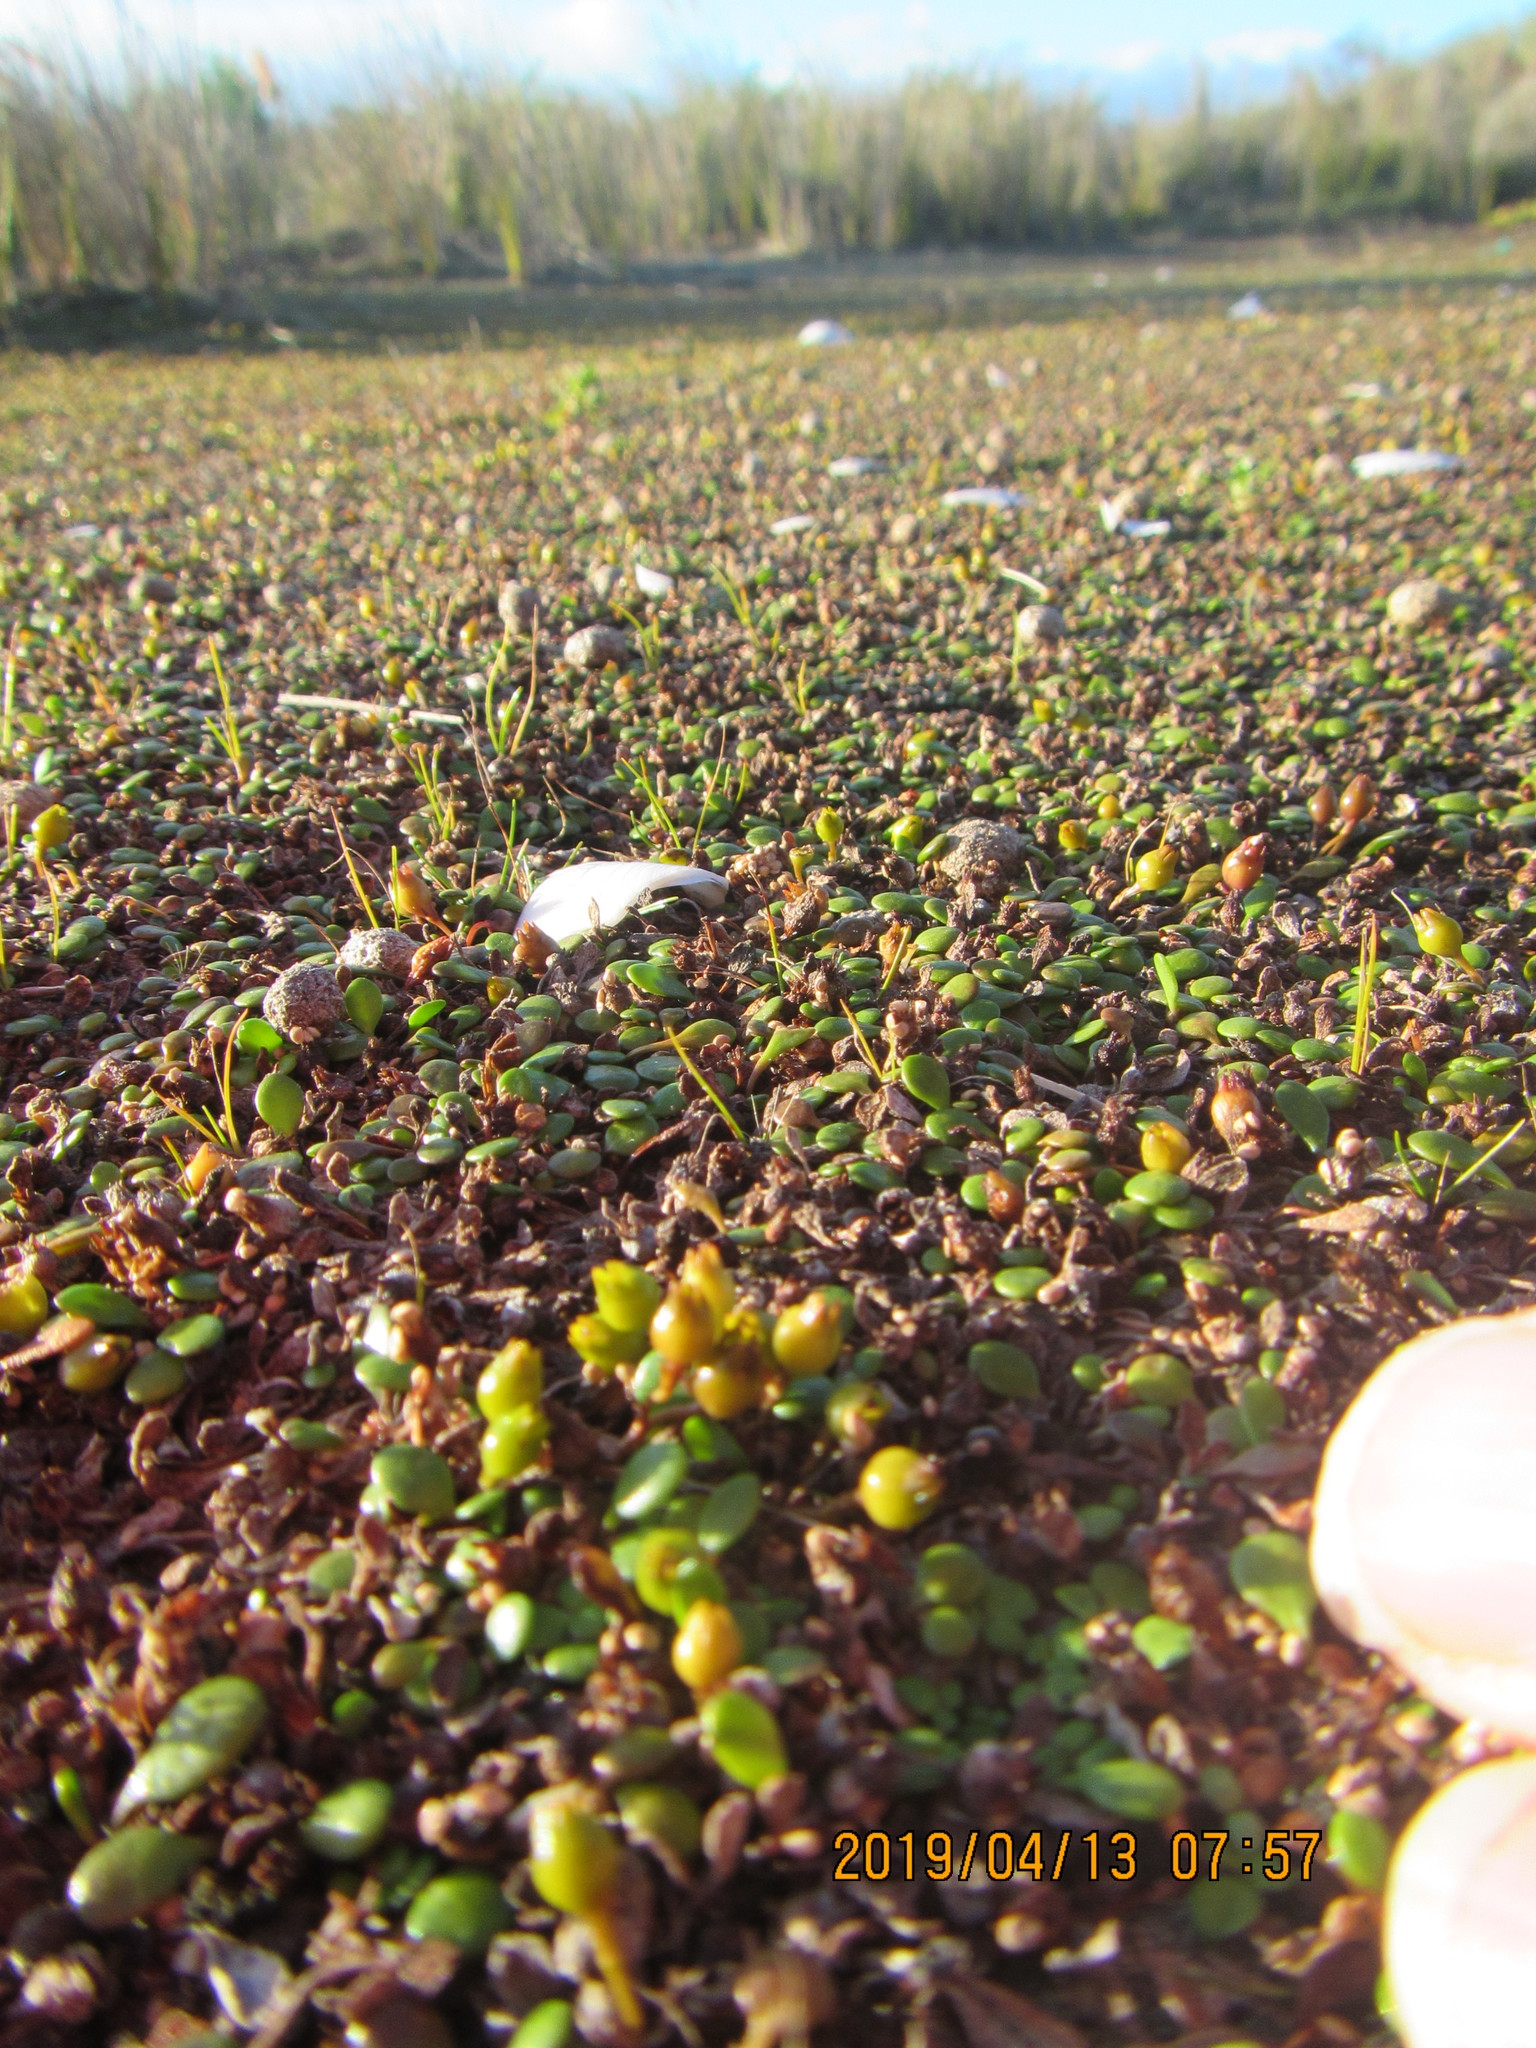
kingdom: Plantae
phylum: Tracheophyta
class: Magnoliopsida
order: Asterales
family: Goodeniaceae
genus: Goodenia
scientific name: Goodenia heenanii
